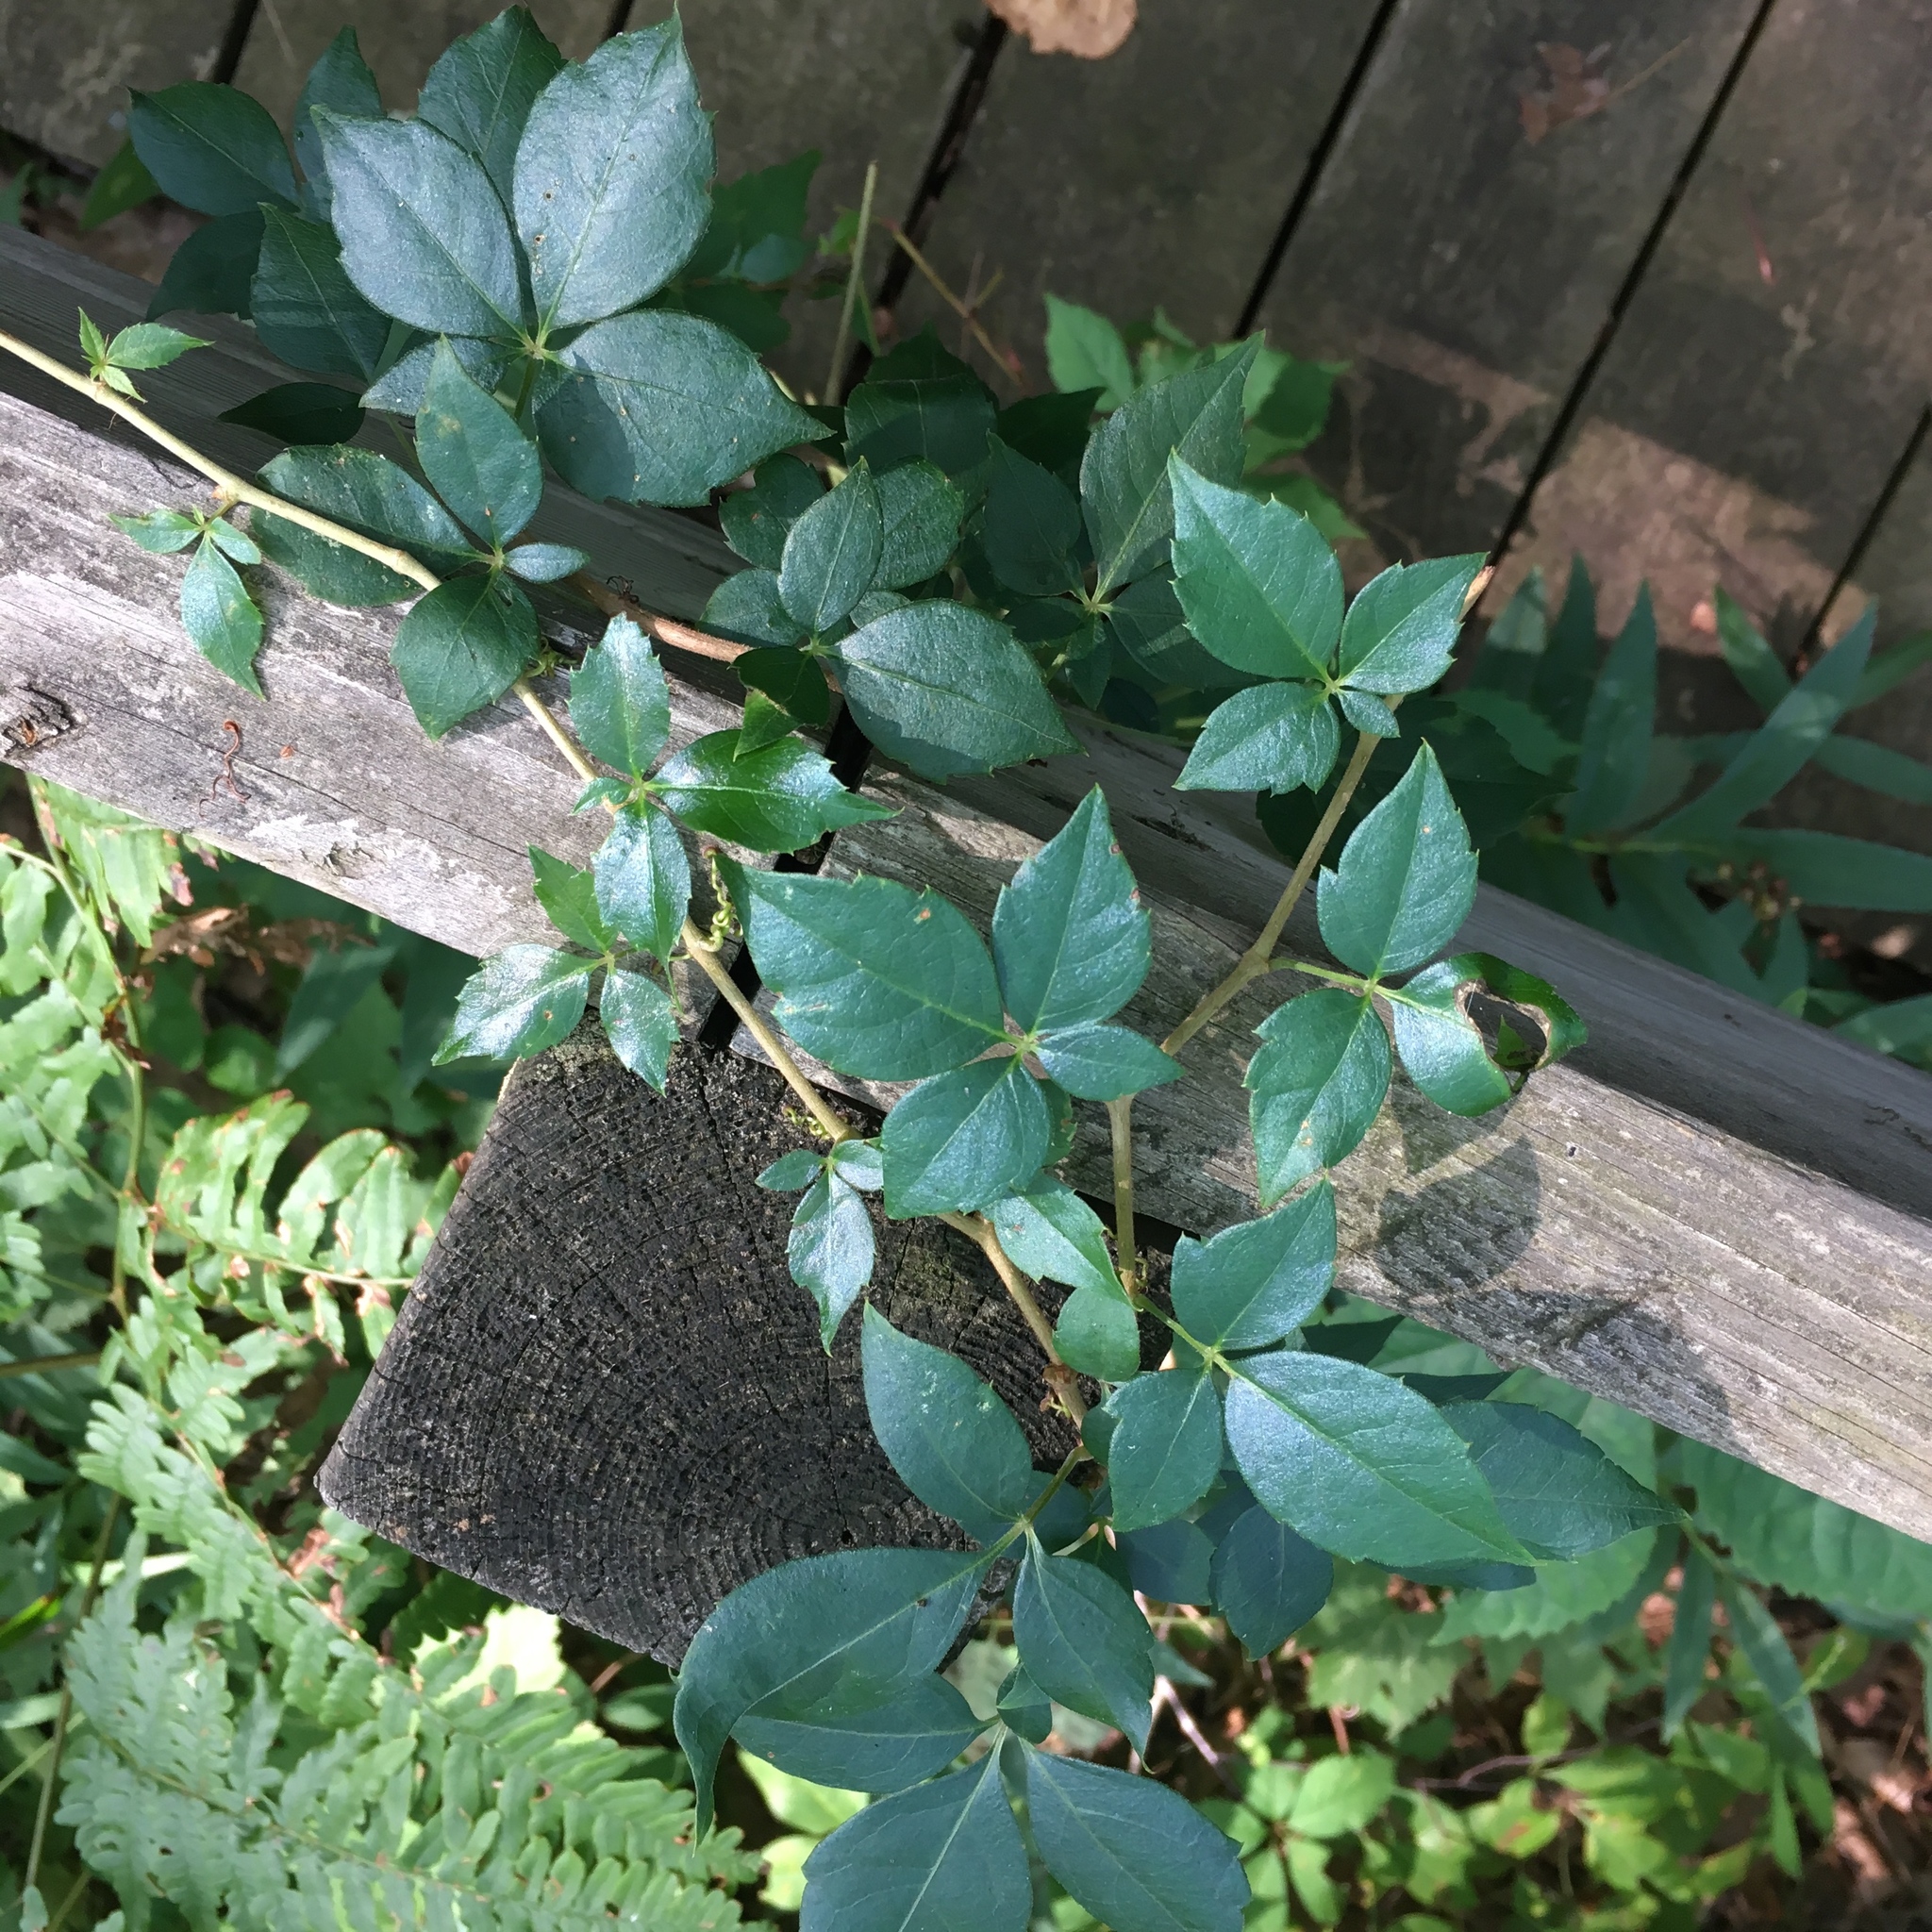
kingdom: Plantae
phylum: Tracheophyta
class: Magnoliopsida
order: Vitales
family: Vitaceae
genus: Parthenocissus
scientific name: Parthenocissus quinquefolia
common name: Virginia-creeper
